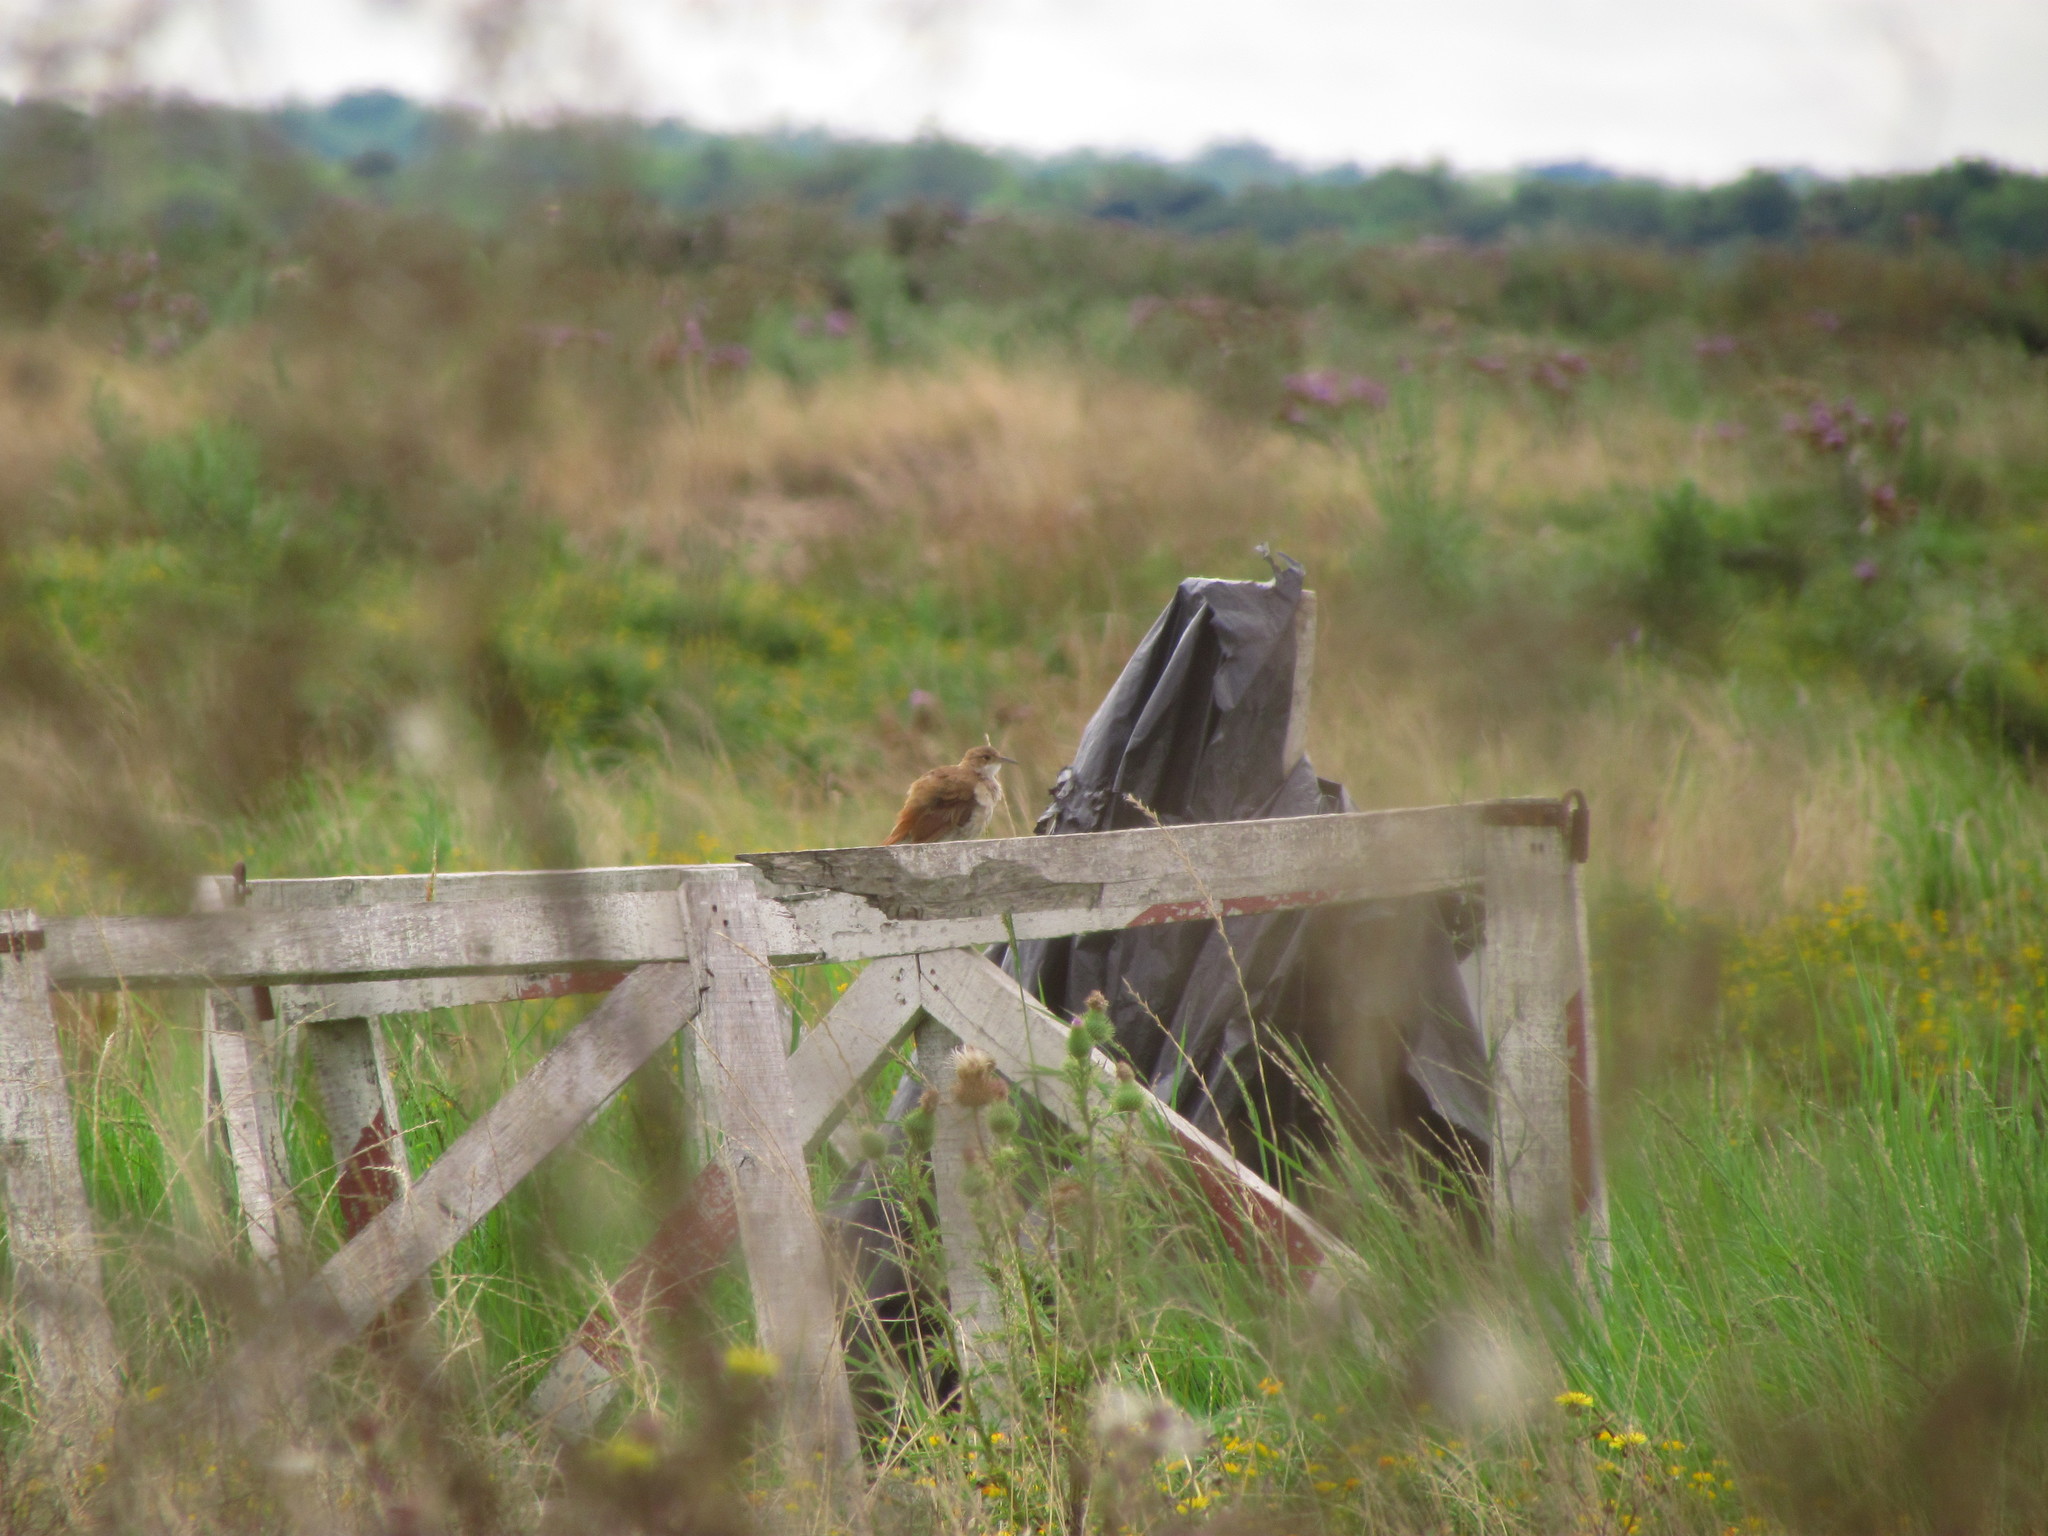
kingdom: Animalia
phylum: Chordata
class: Aves
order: Passeriformes
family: Furnariidae
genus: Furnarius
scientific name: Furnarius rufus
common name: Rufous hornero
